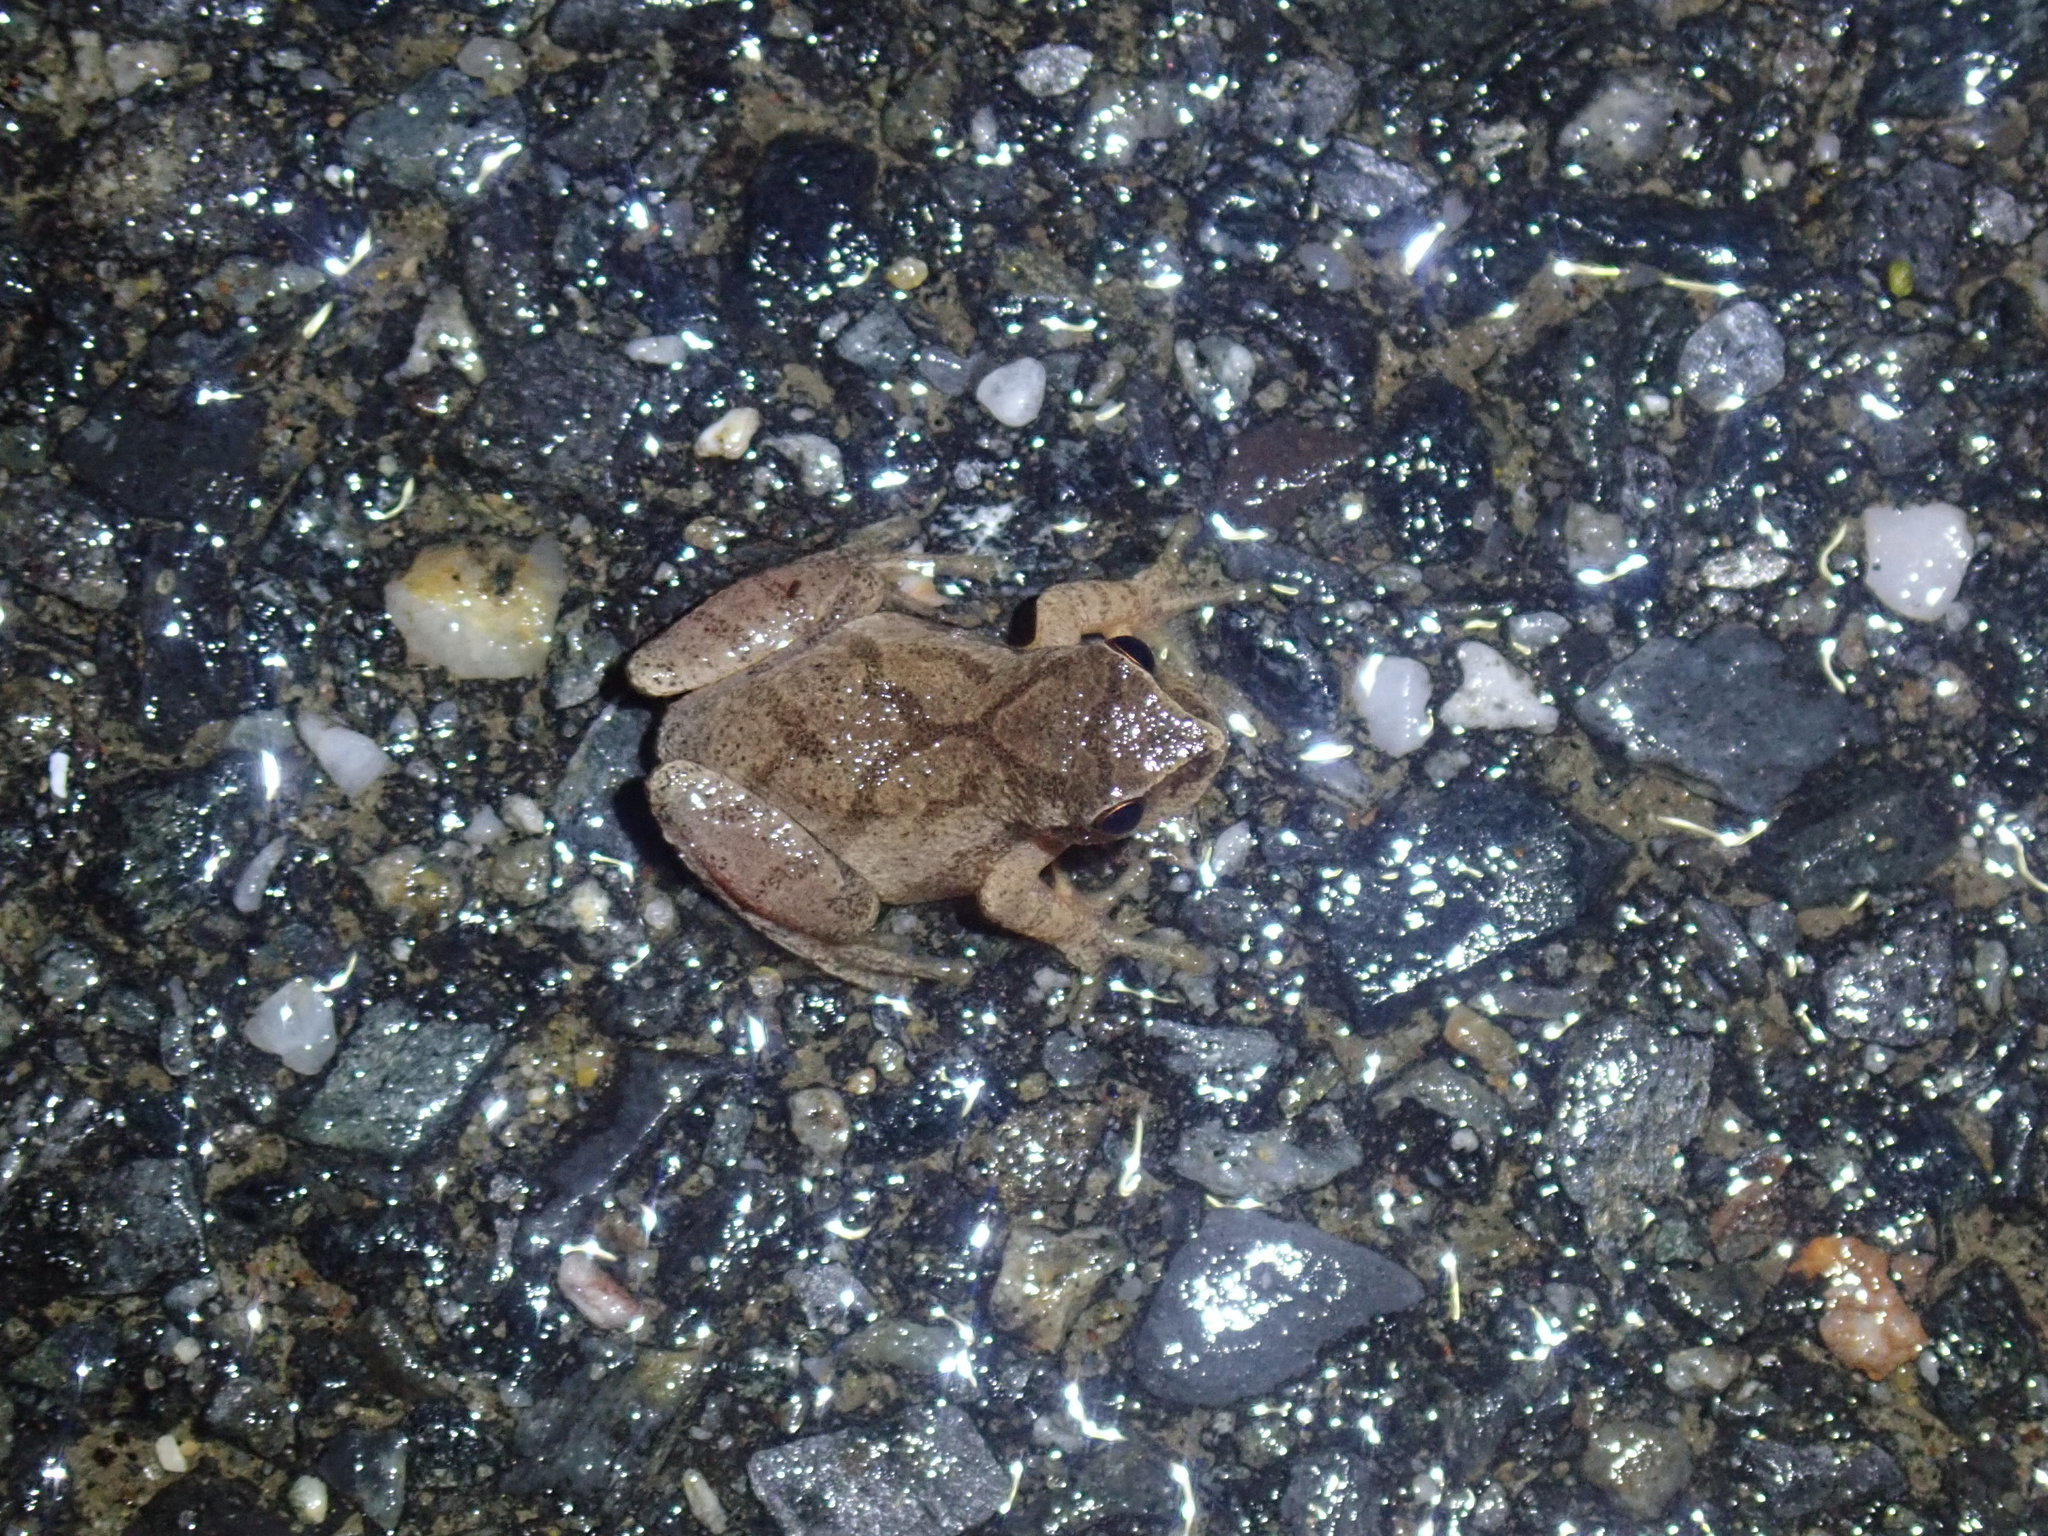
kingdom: Animalia
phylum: Chordata
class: Amphibia
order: Anura
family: Hylidae
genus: Pseudacris
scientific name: Pseudacris crucifer
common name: Spring peeper
